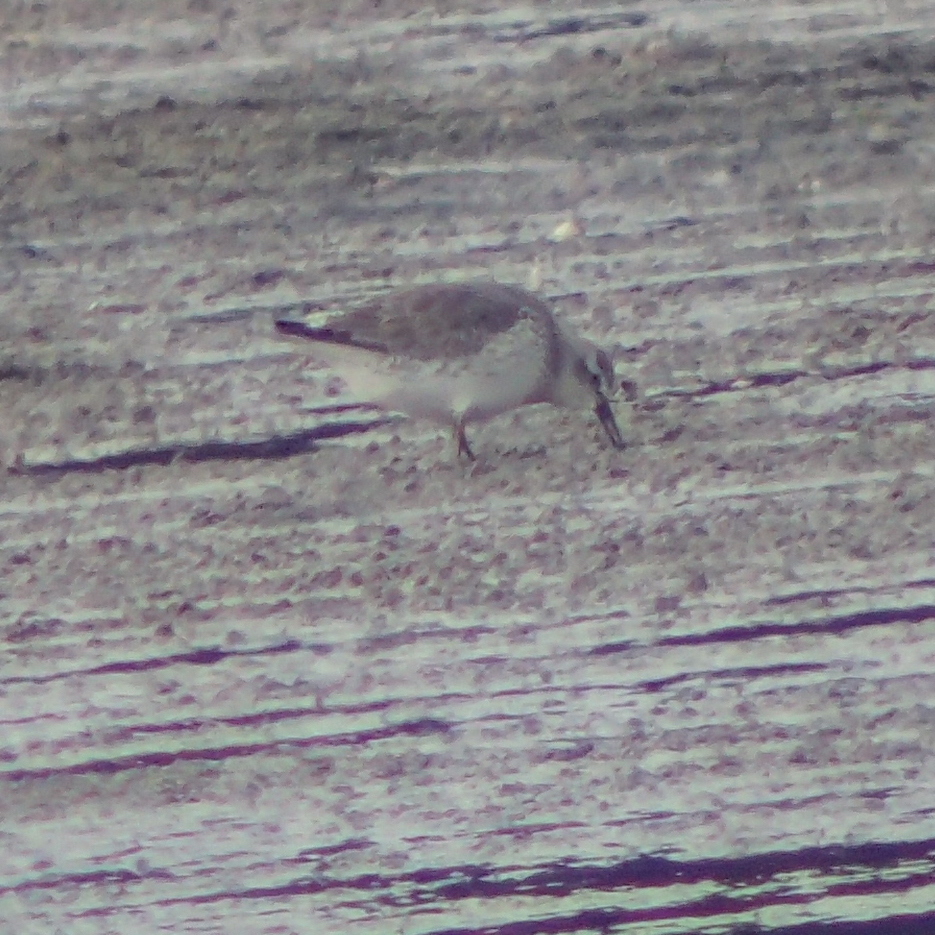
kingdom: Animalia
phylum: Chordata
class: Aves
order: Charadriiformes
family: Scolopacidae
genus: Calidris
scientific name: Calidris canutus
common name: Red knot
